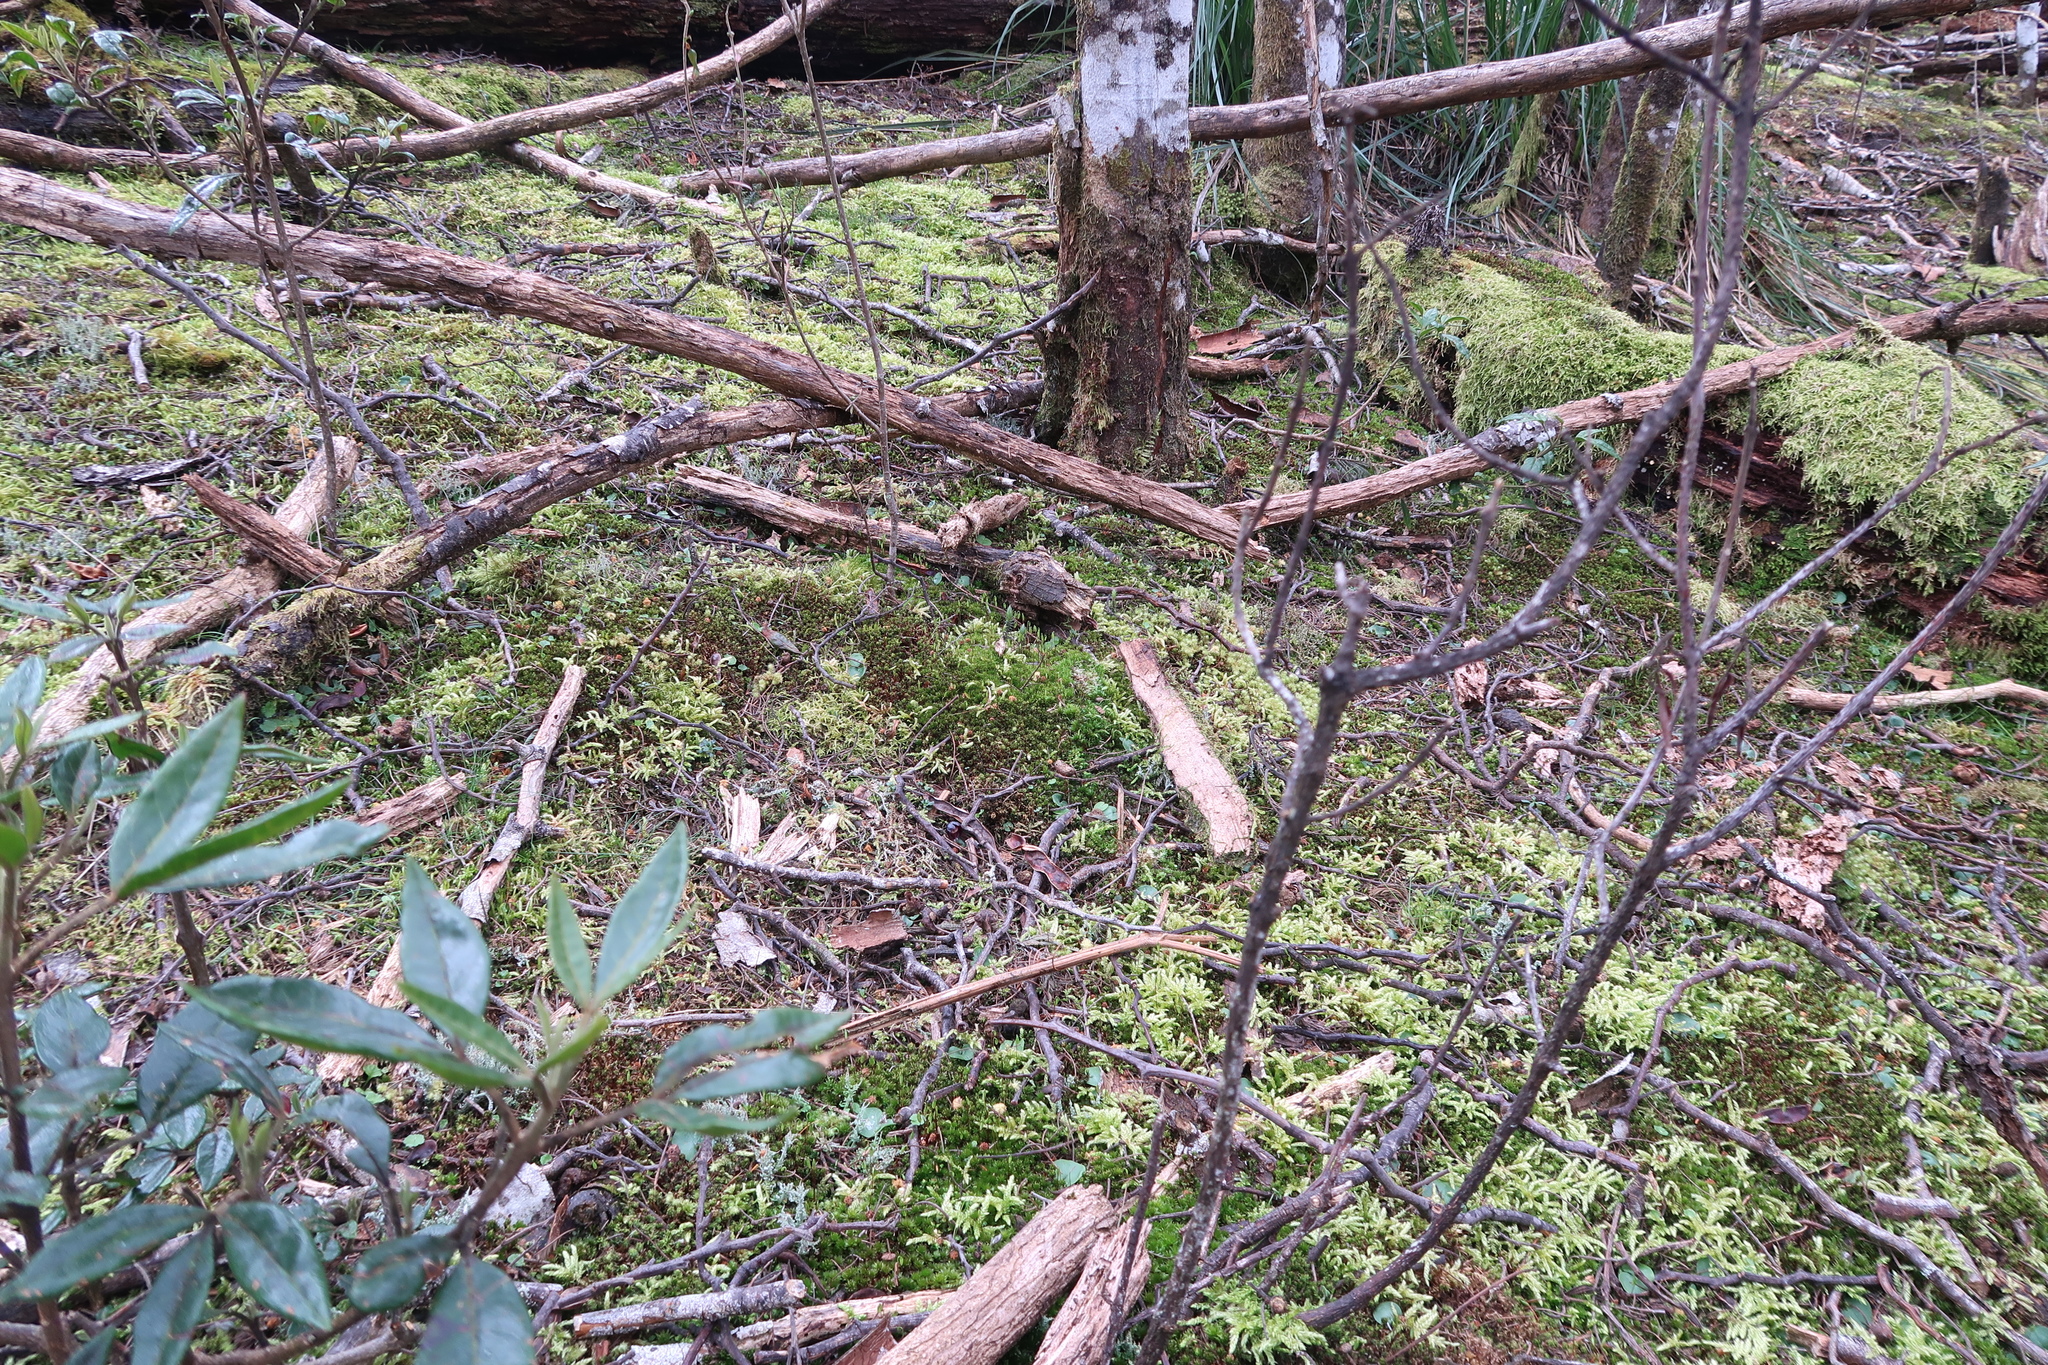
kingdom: Plantae
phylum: Tracheophyta
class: Liliopsida
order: Asparagales
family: Orchidaceae
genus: Corybas
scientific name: Corybas diemenicus
